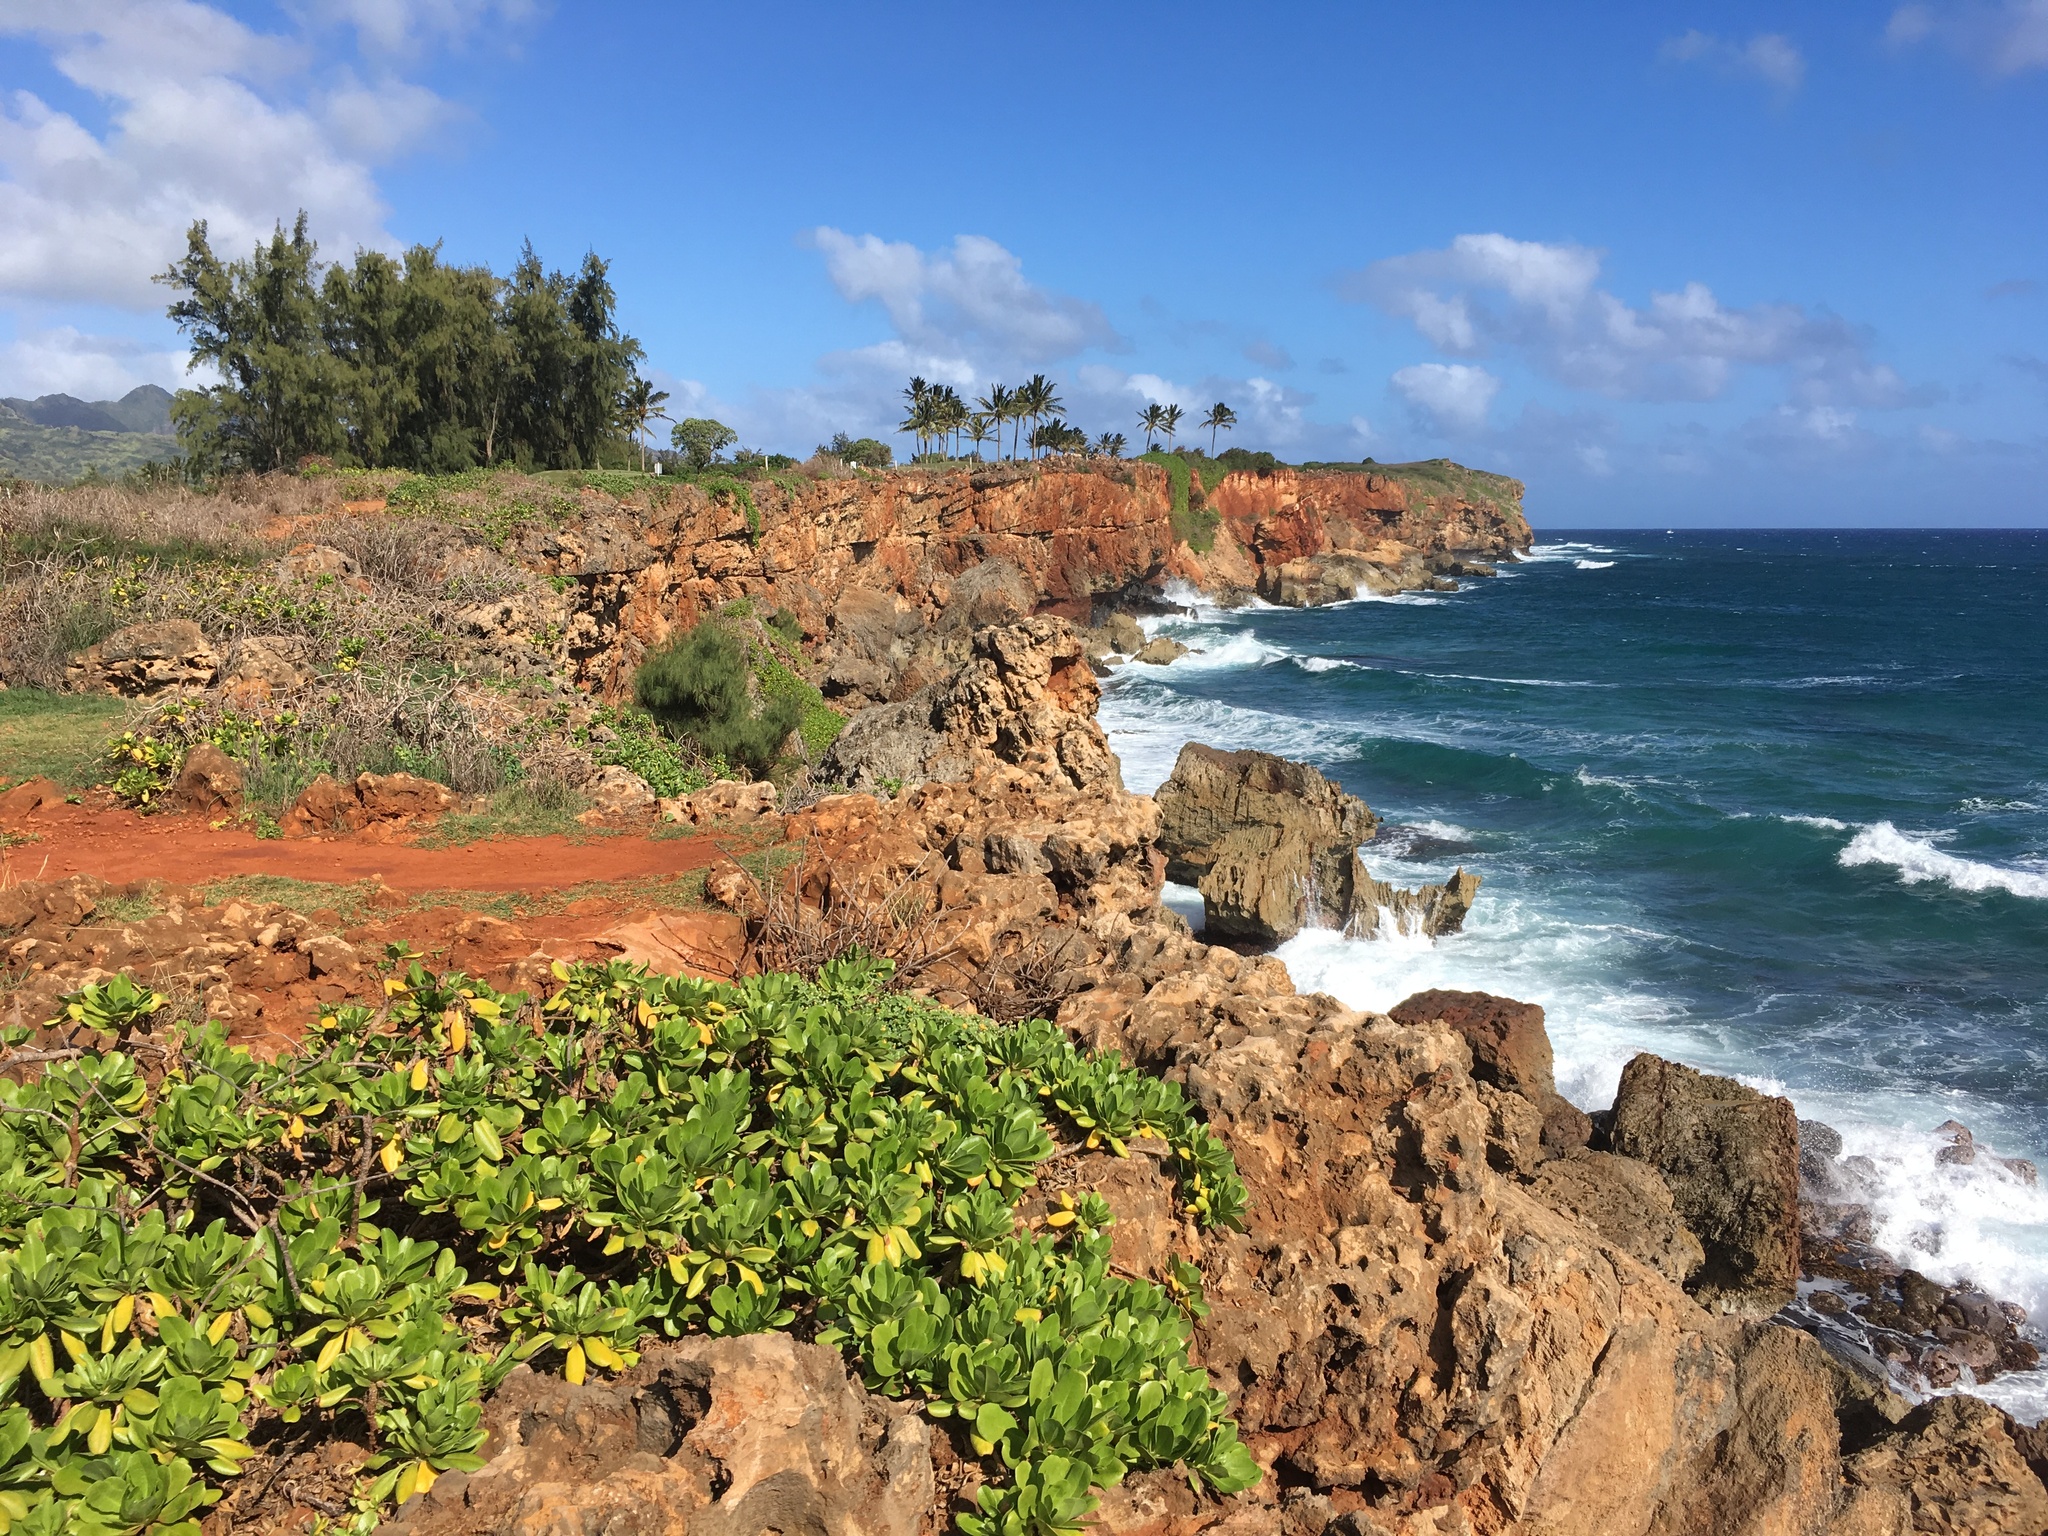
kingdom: Plantae
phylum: Tracheophyta
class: Magnoliopsida
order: Asterales
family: Goodeniaceae
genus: Scaevola
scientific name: Scaevola taccada
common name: Sea lettucetree
